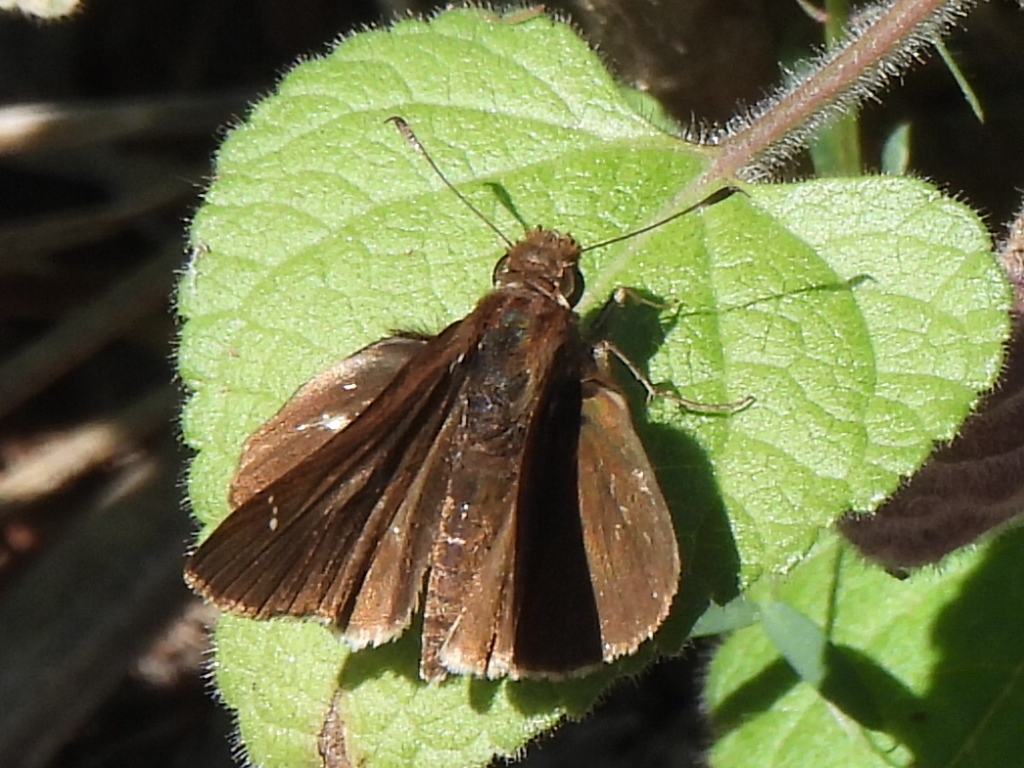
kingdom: Animalia
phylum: Arthropoda
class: Insecta
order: Lepidoptera
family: Hesperiidae
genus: Lerema
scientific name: Lerema accius
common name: Clouded skipper
